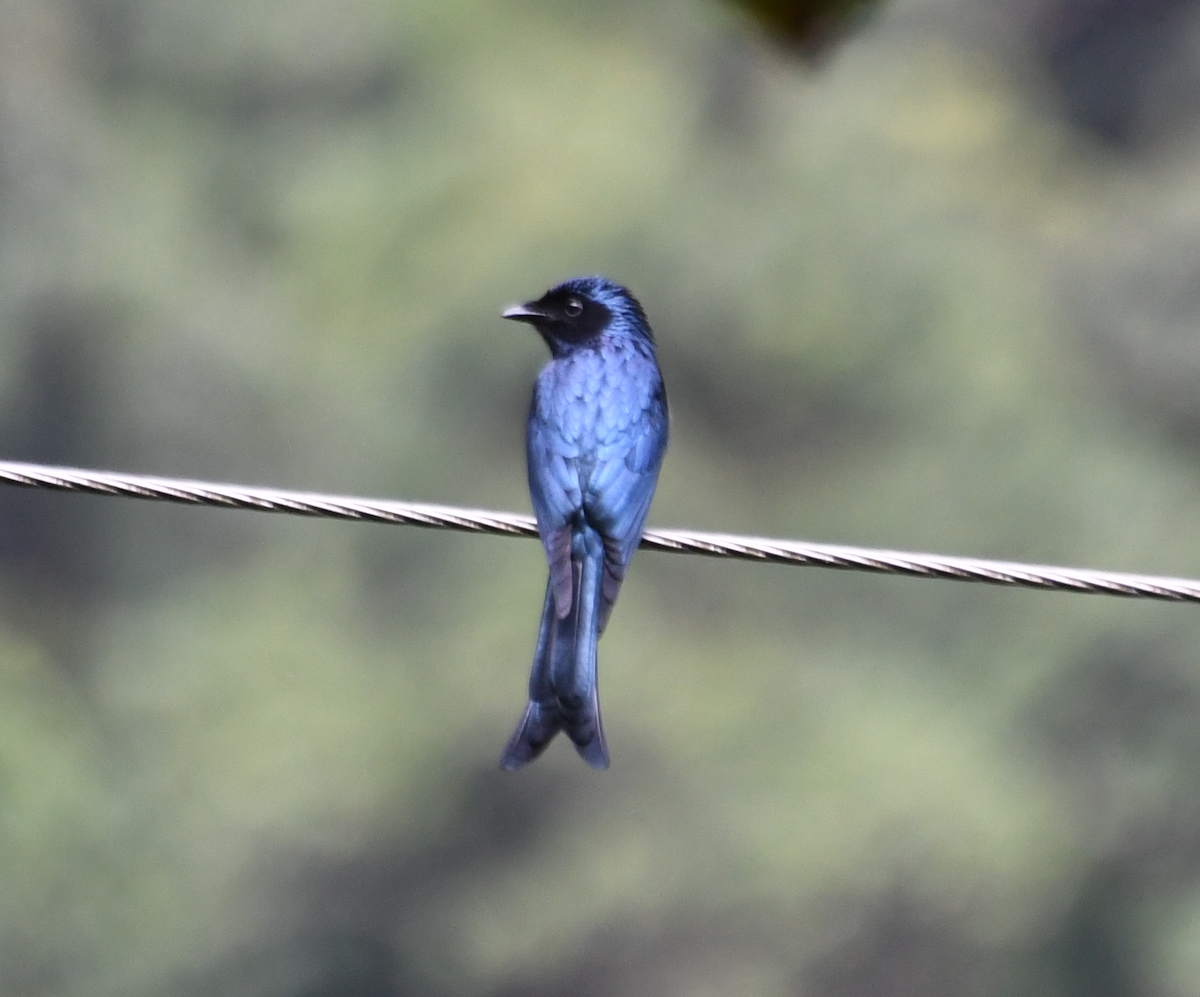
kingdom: Animalia
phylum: Chordata
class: Aves
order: Passeriformes
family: Dicruridae
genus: Dicrurus
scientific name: Dicrurus aeneus
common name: Bronzed drongo
